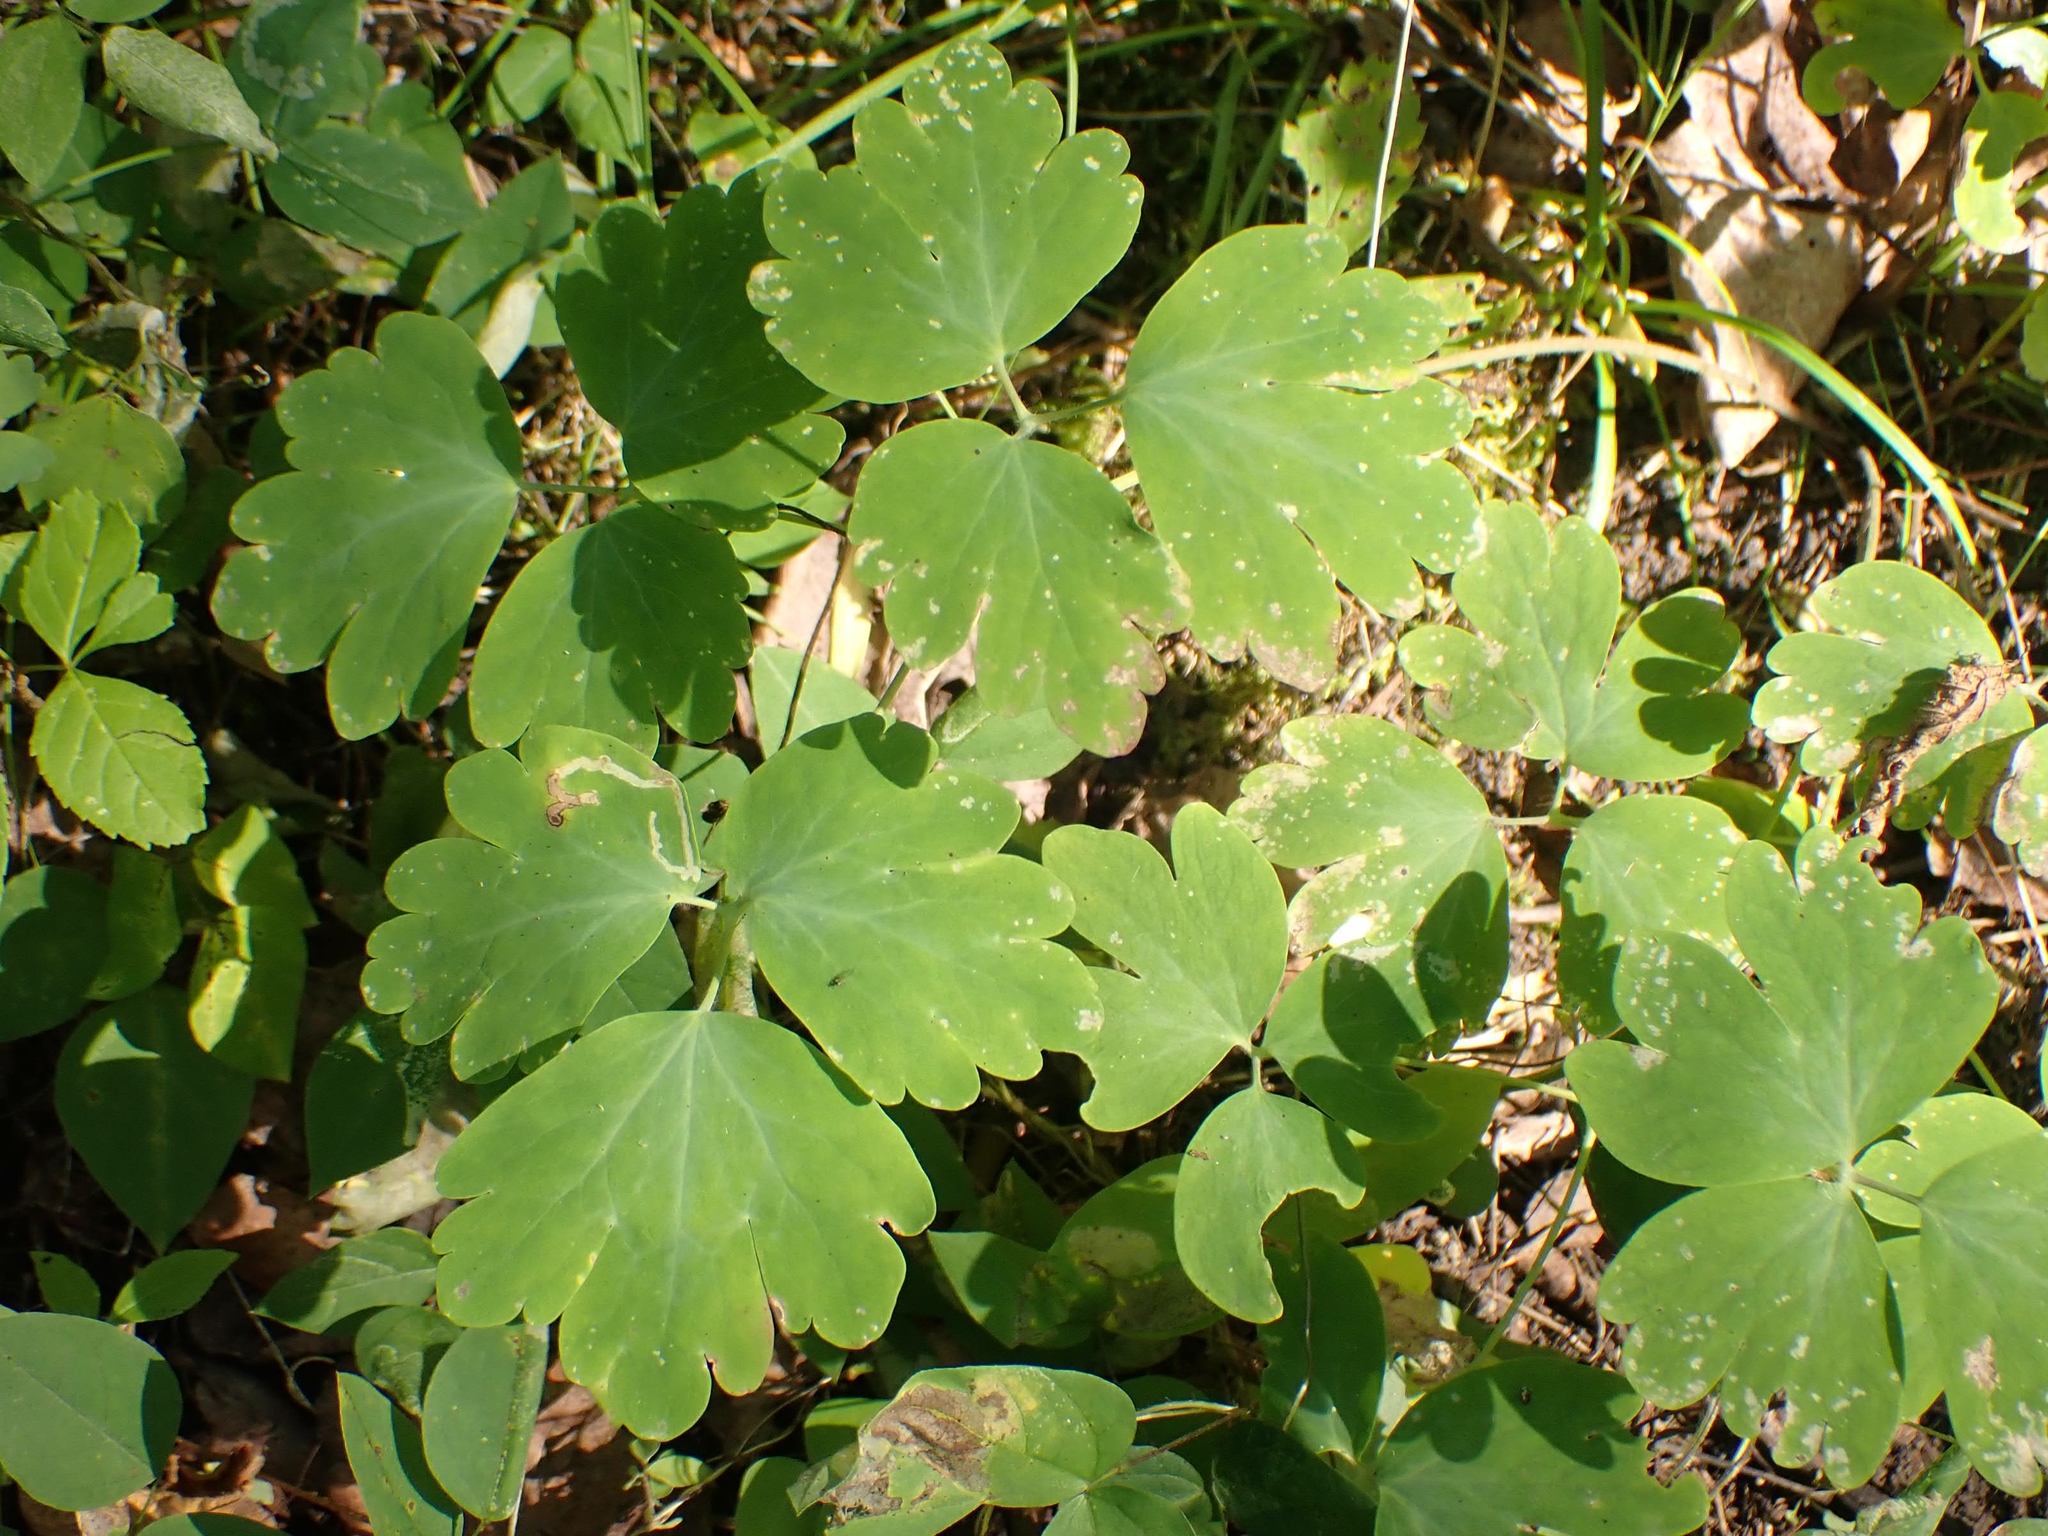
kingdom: Plantae
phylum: Tracheophyta
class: Magnoliopsida
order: Ranunculales
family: Ranunculaceae
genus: Aquilegia
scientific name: Aquilegia canadensis
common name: American columbine
